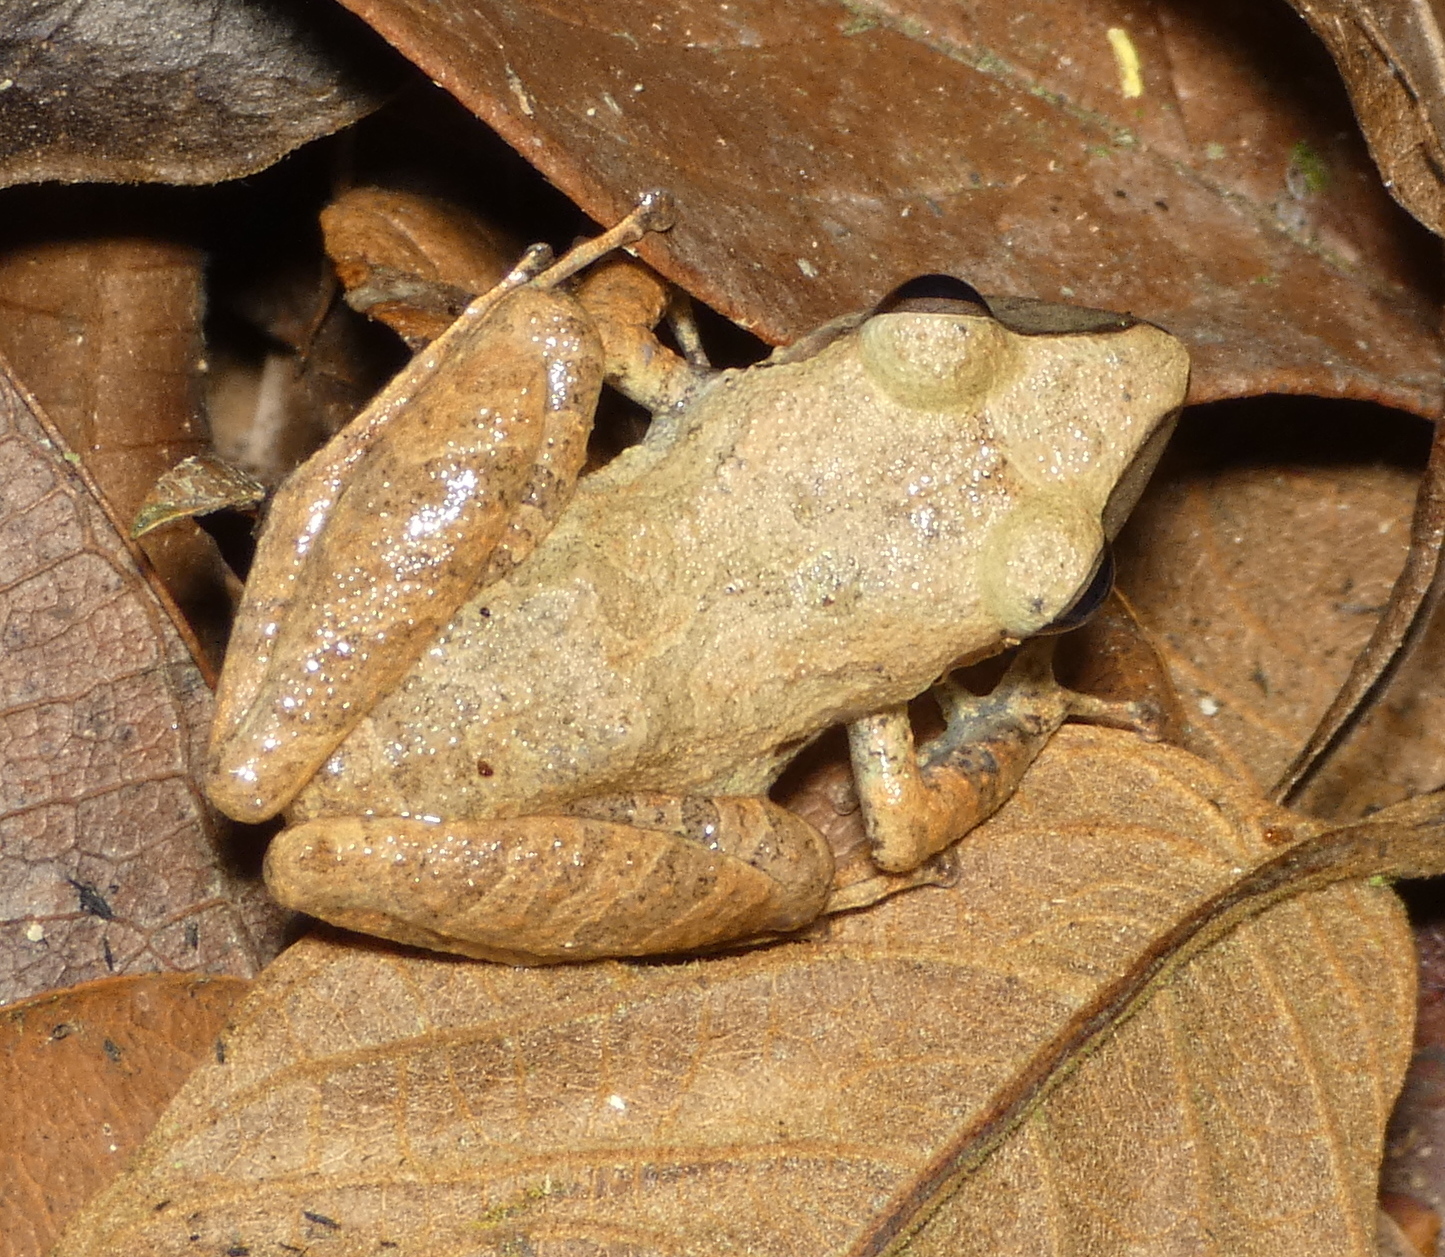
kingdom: Animalia
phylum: Chordata
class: Amphibia
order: Anura
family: Craugastoridae
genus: Pristimantis
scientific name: Pristimantis ramagii
